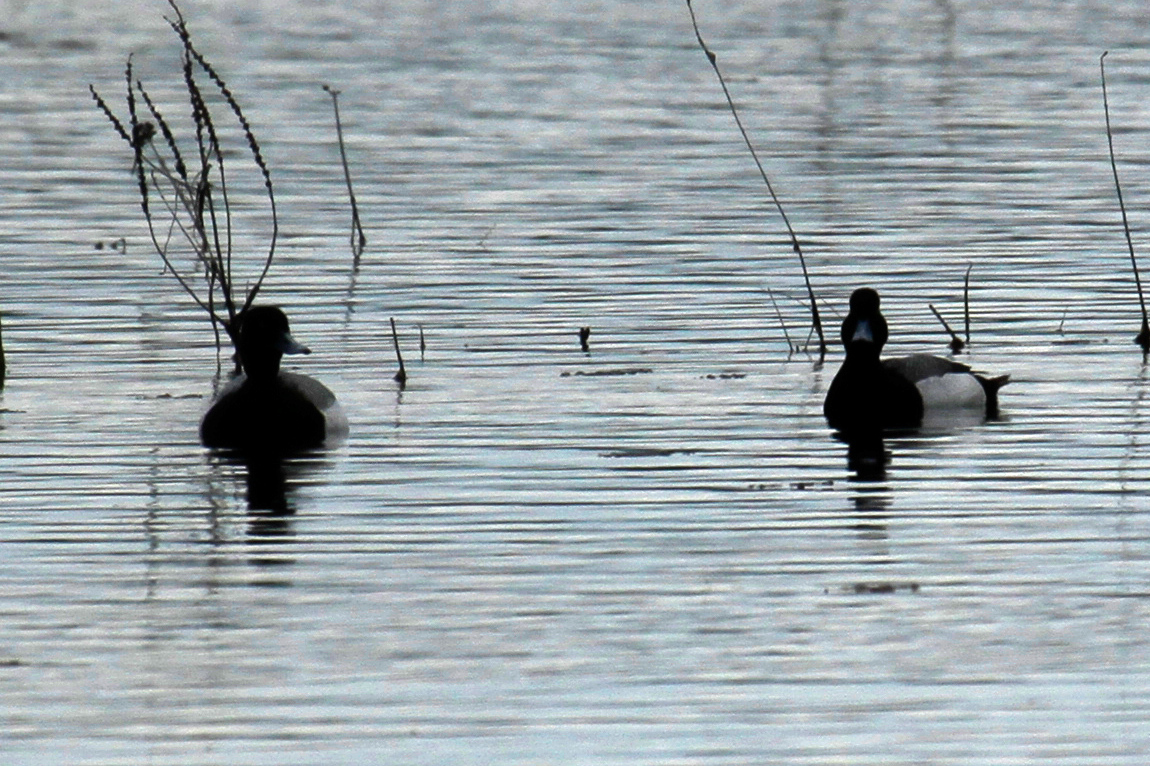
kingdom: Animalia
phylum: Chordata
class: Aves
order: Anseriformes
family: Anatidae
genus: Aythya
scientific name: Aythya affinis
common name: Lesser scaup
